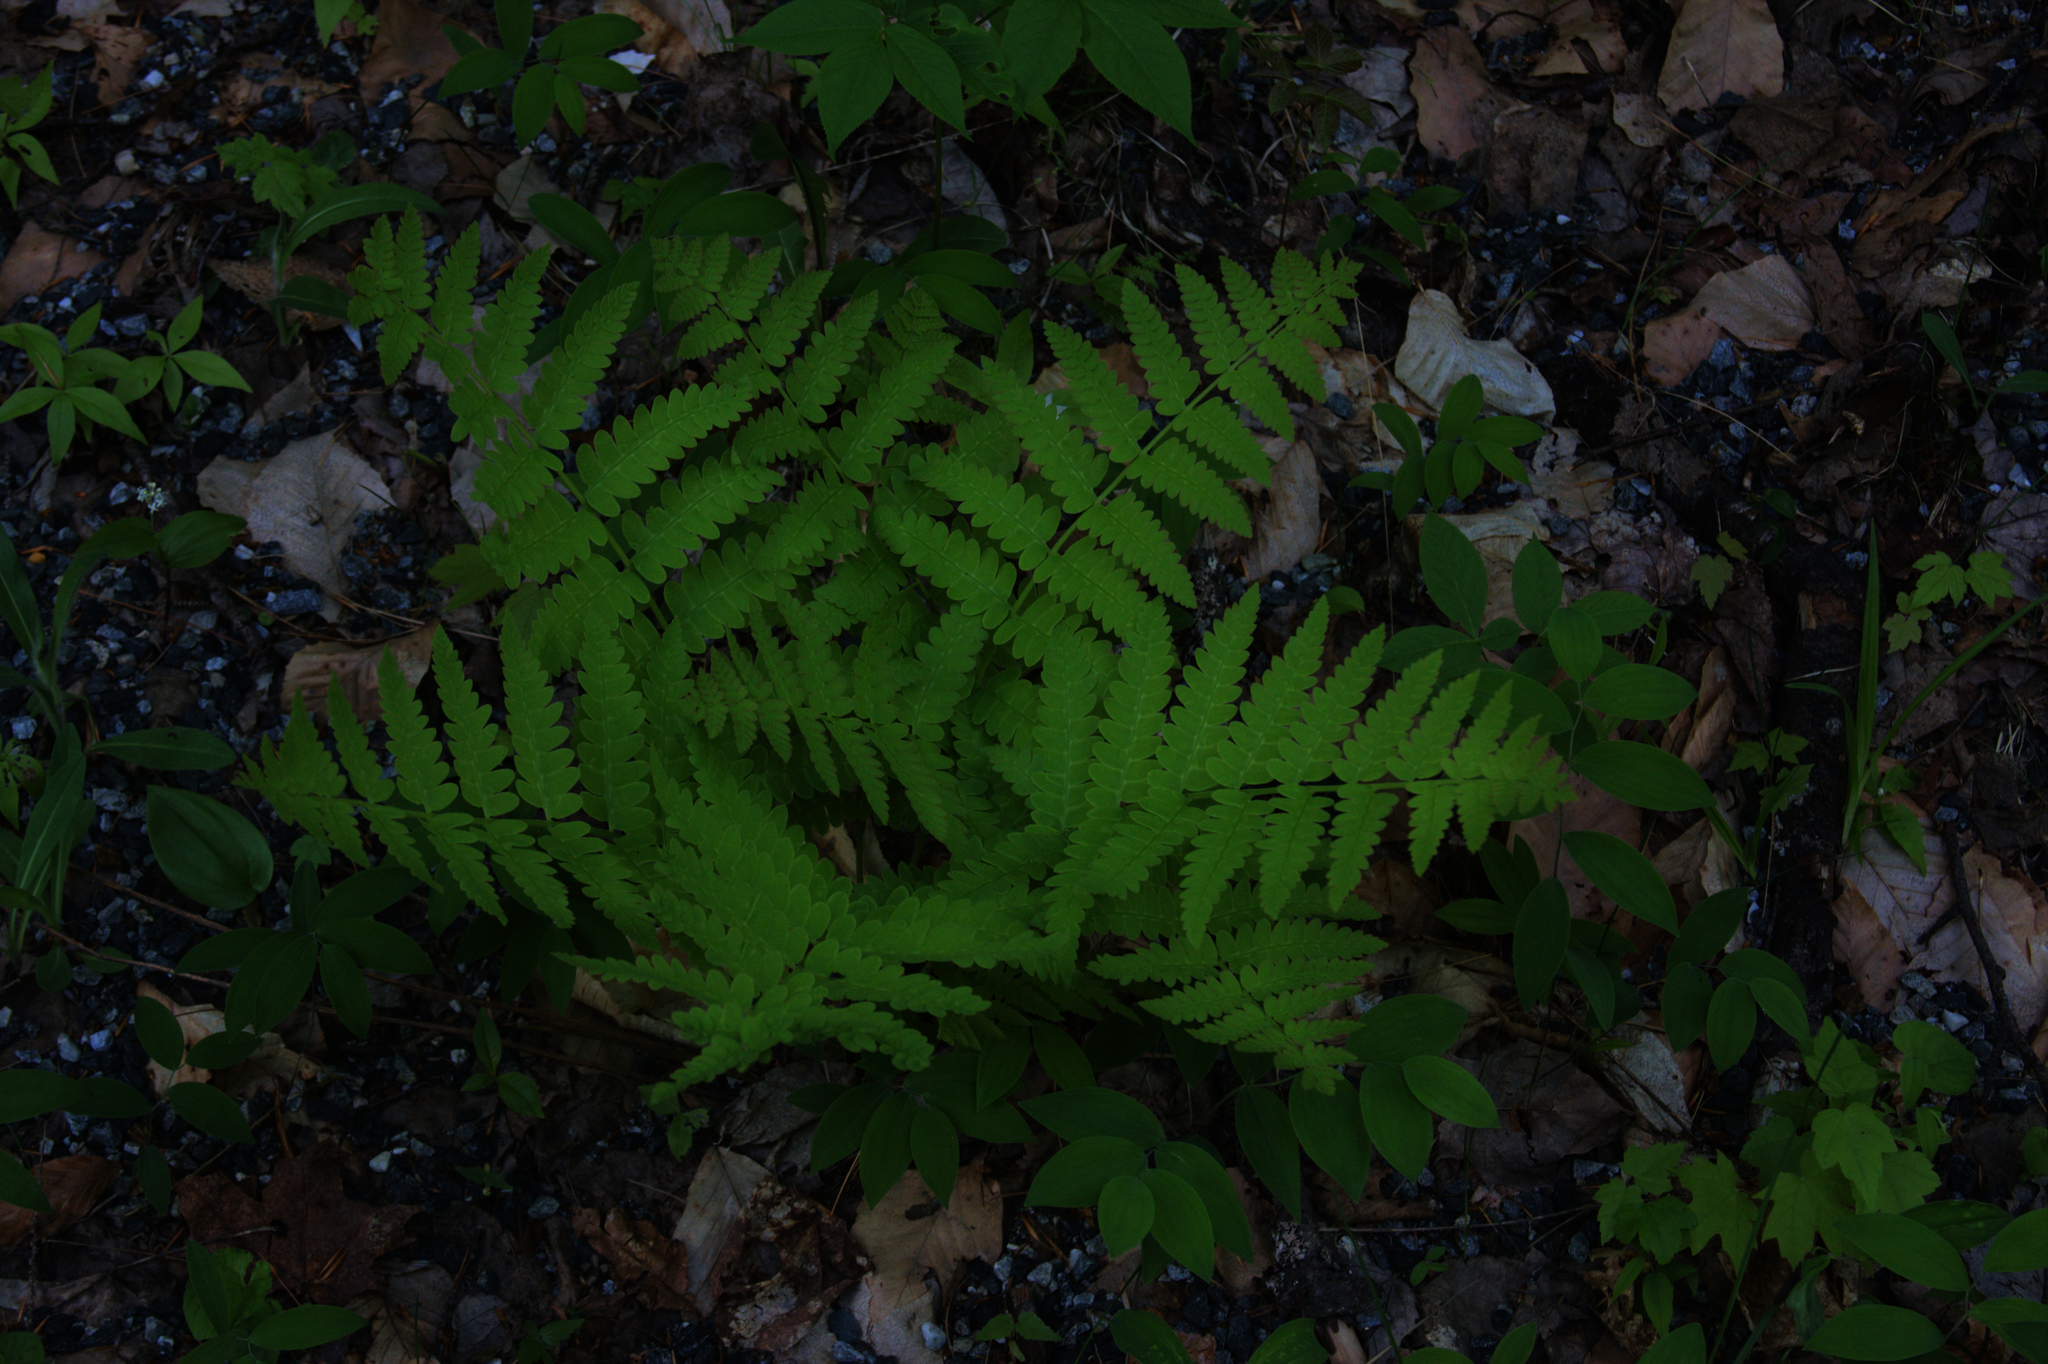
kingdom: Plantae
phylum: Tracheophyta
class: Polypodiopsida
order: Osmundales
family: Osmundaceae
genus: Claytosmunda
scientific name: Claytosmunda claytoniana
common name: Clayton's fern
